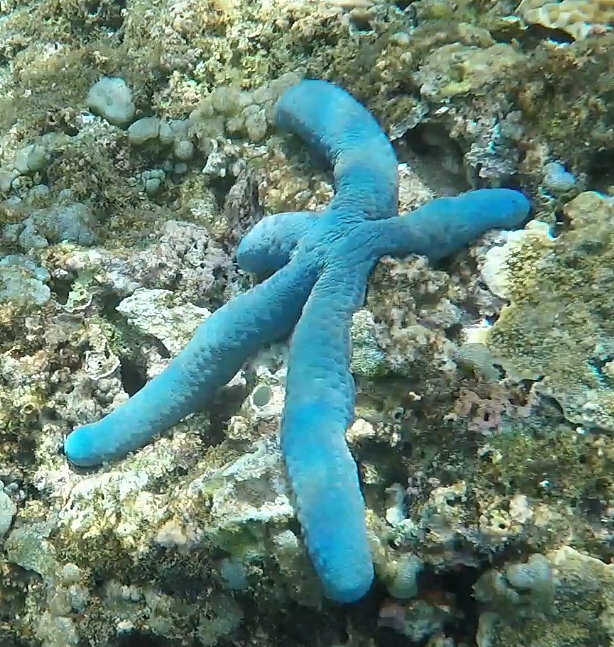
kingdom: Animalia
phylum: Echinodermata
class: Asteroidea
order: Valvatida
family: Ophidiasteridae
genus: Linckia
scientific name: Linckia laevigata
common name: Azure sea star
